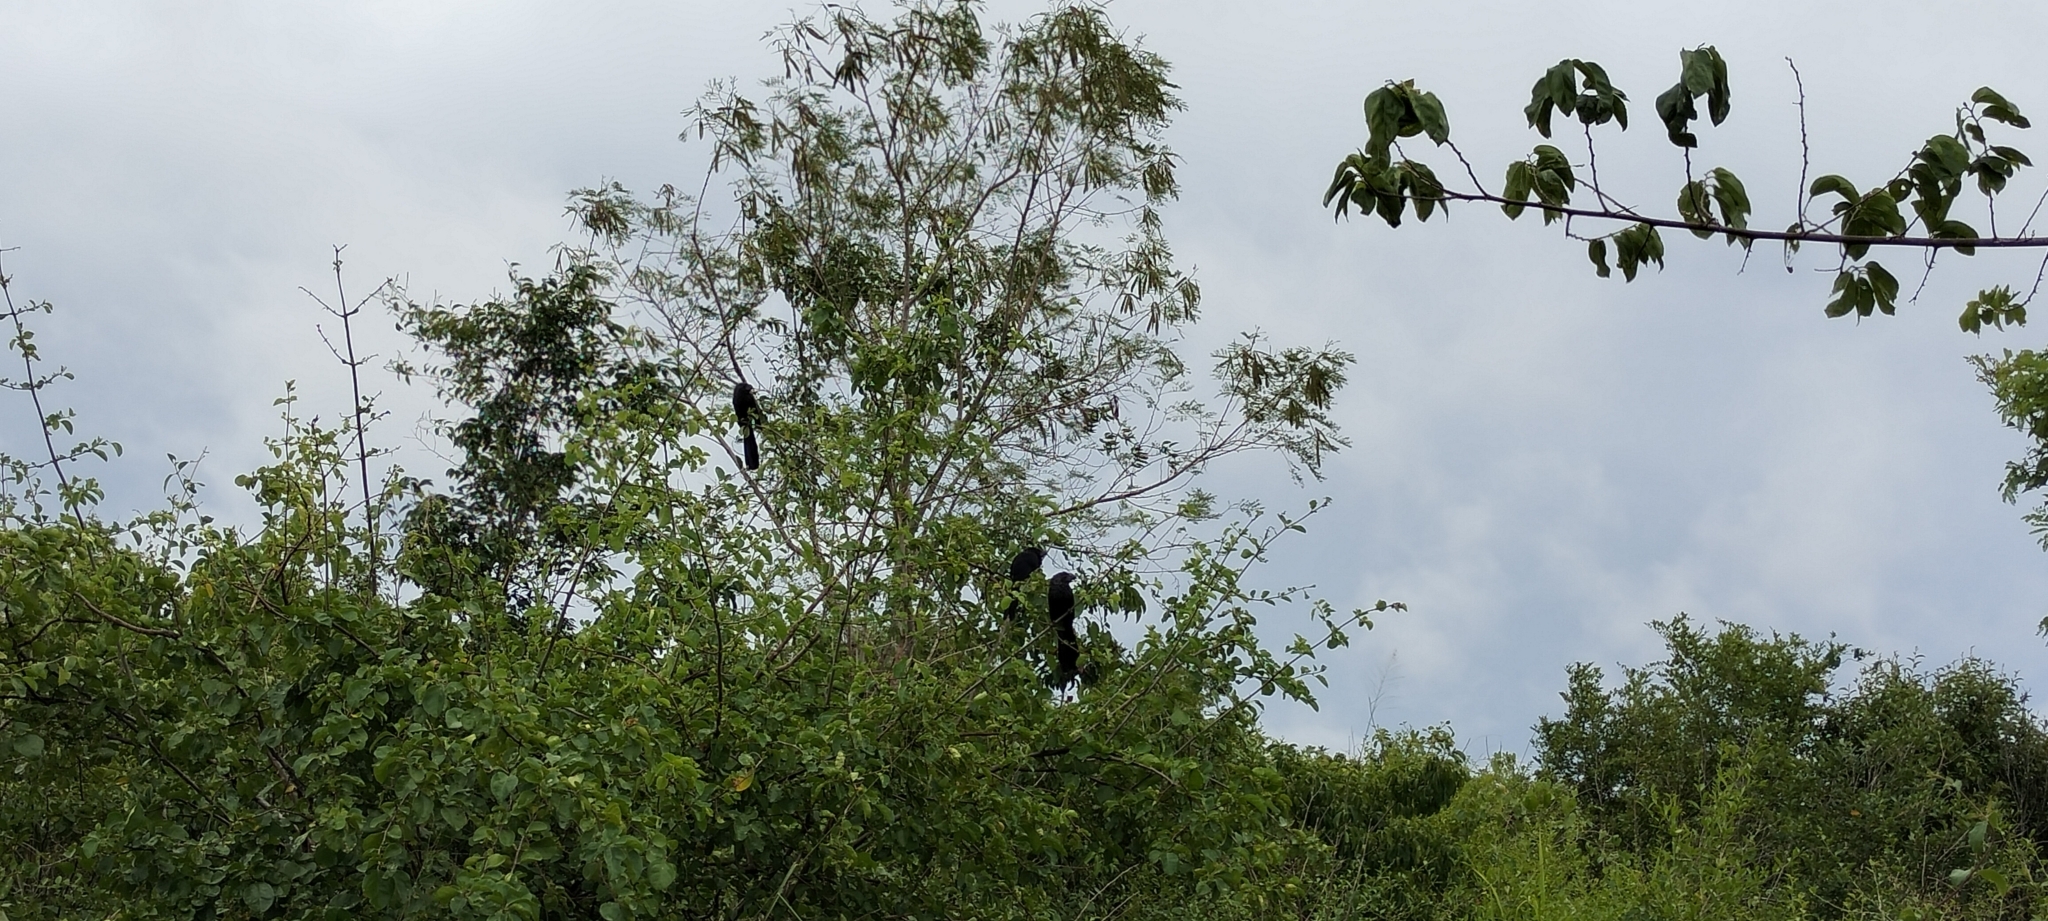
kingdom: Animalia
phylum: Chordata
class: Aves
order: Cuculiformes
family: Cuculidae
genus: Crotophaga
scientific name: Crotophaga sulcirostris
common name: Groove-billed ani
